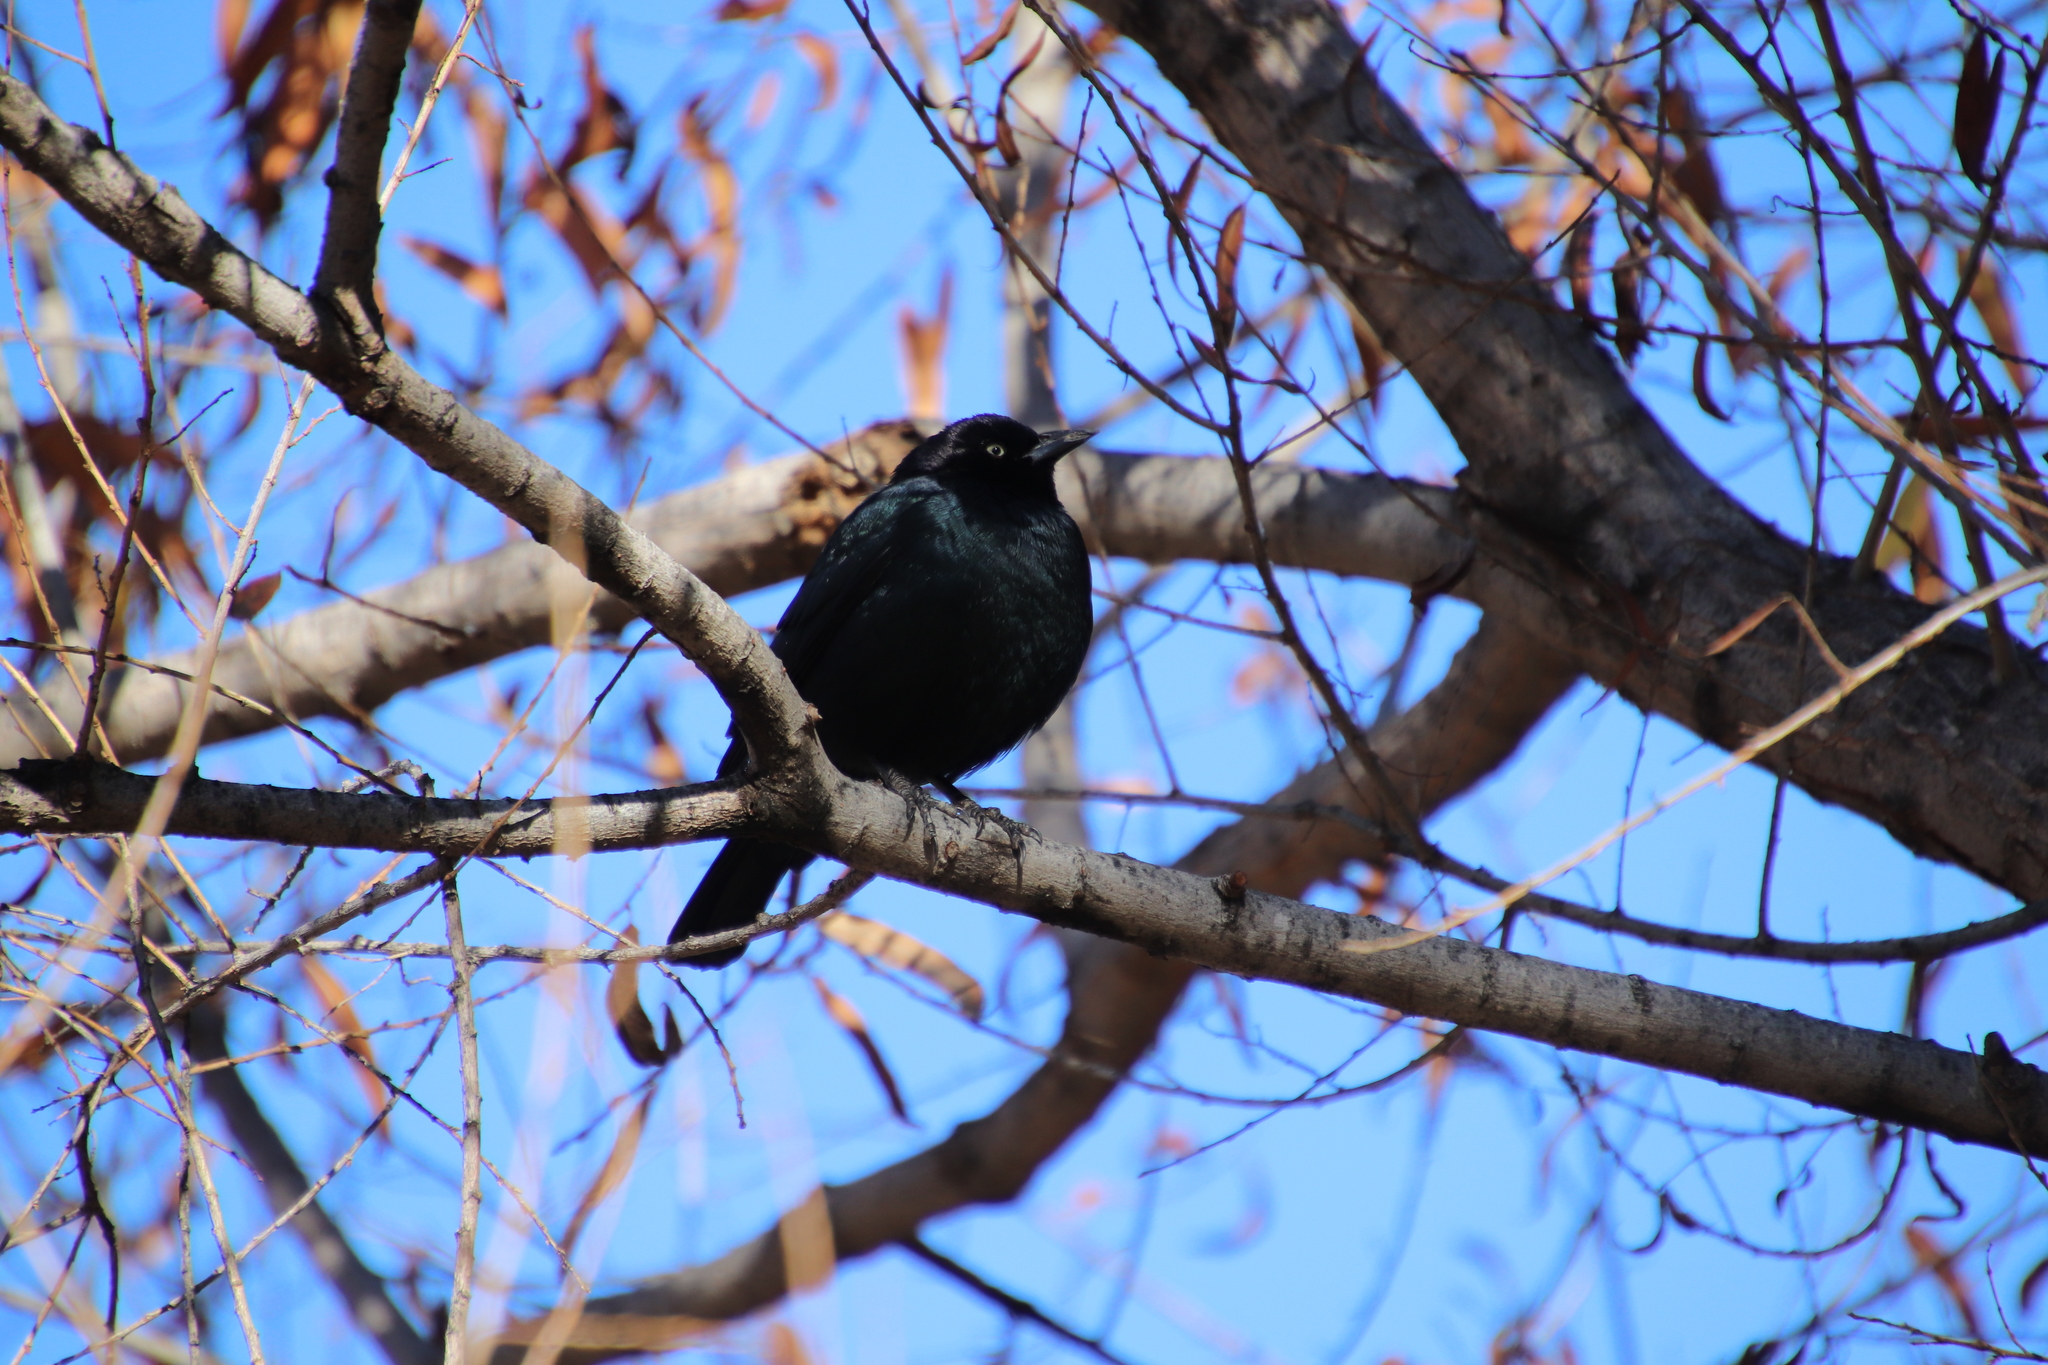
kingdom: Animalia
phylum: Chordata
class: Aves
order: Passeriformes
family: Icteridae
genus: Euphagus
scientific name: Euphagus cyanocephalus
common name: Brewer's blackbird
